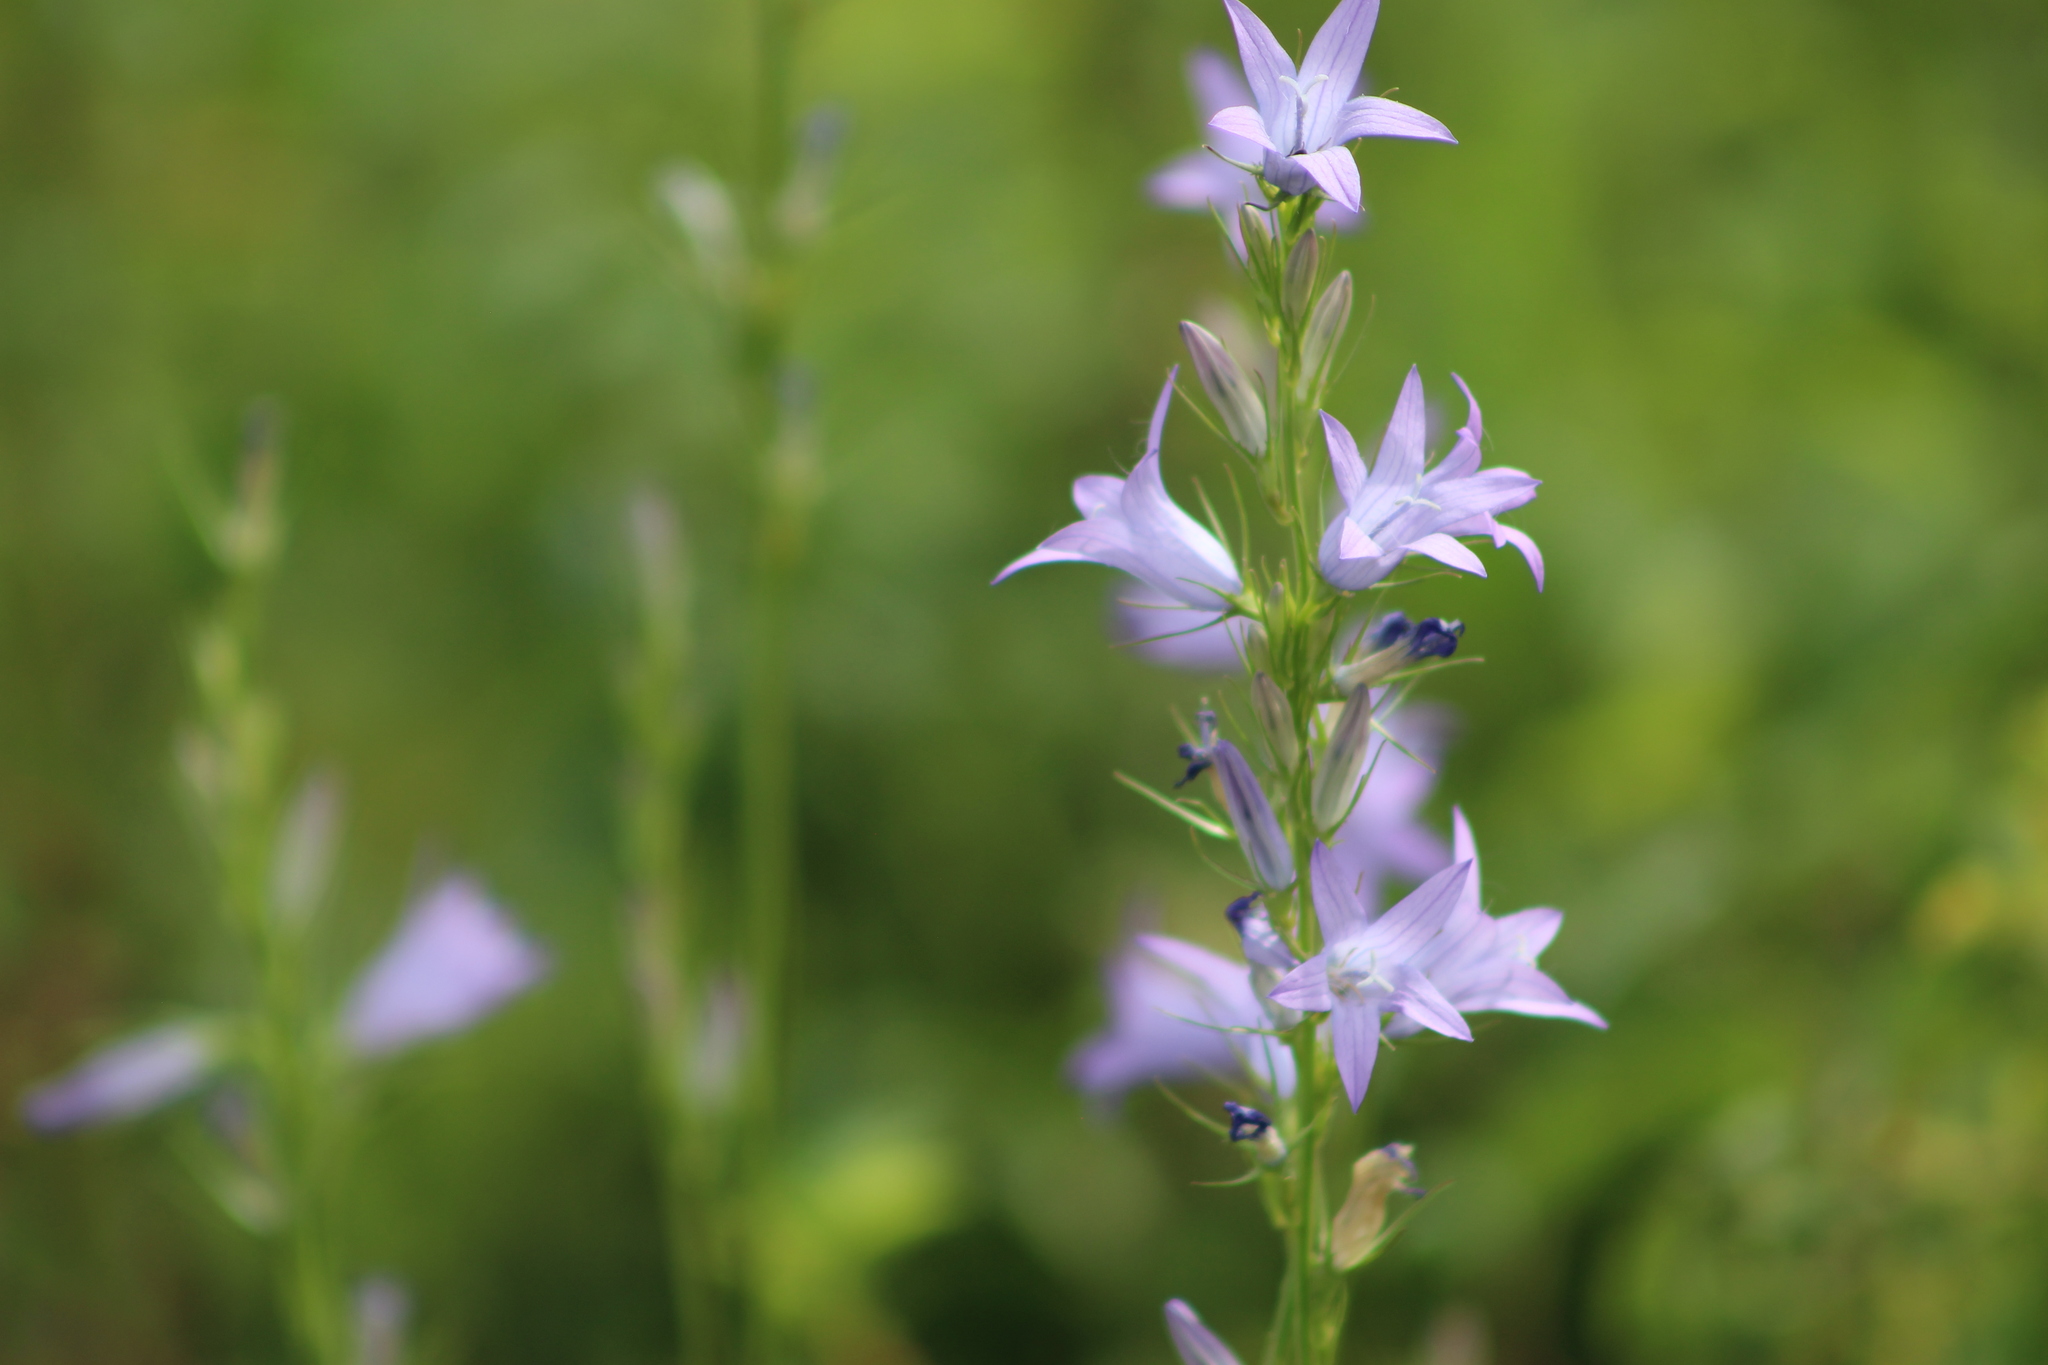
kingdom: Plantae
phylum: Tracheophyta
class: Magnoliopsida
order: Asterales
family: Campanulaceae
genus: Campanula
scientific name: Campanula rapunculus
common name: Rampion bellflower
